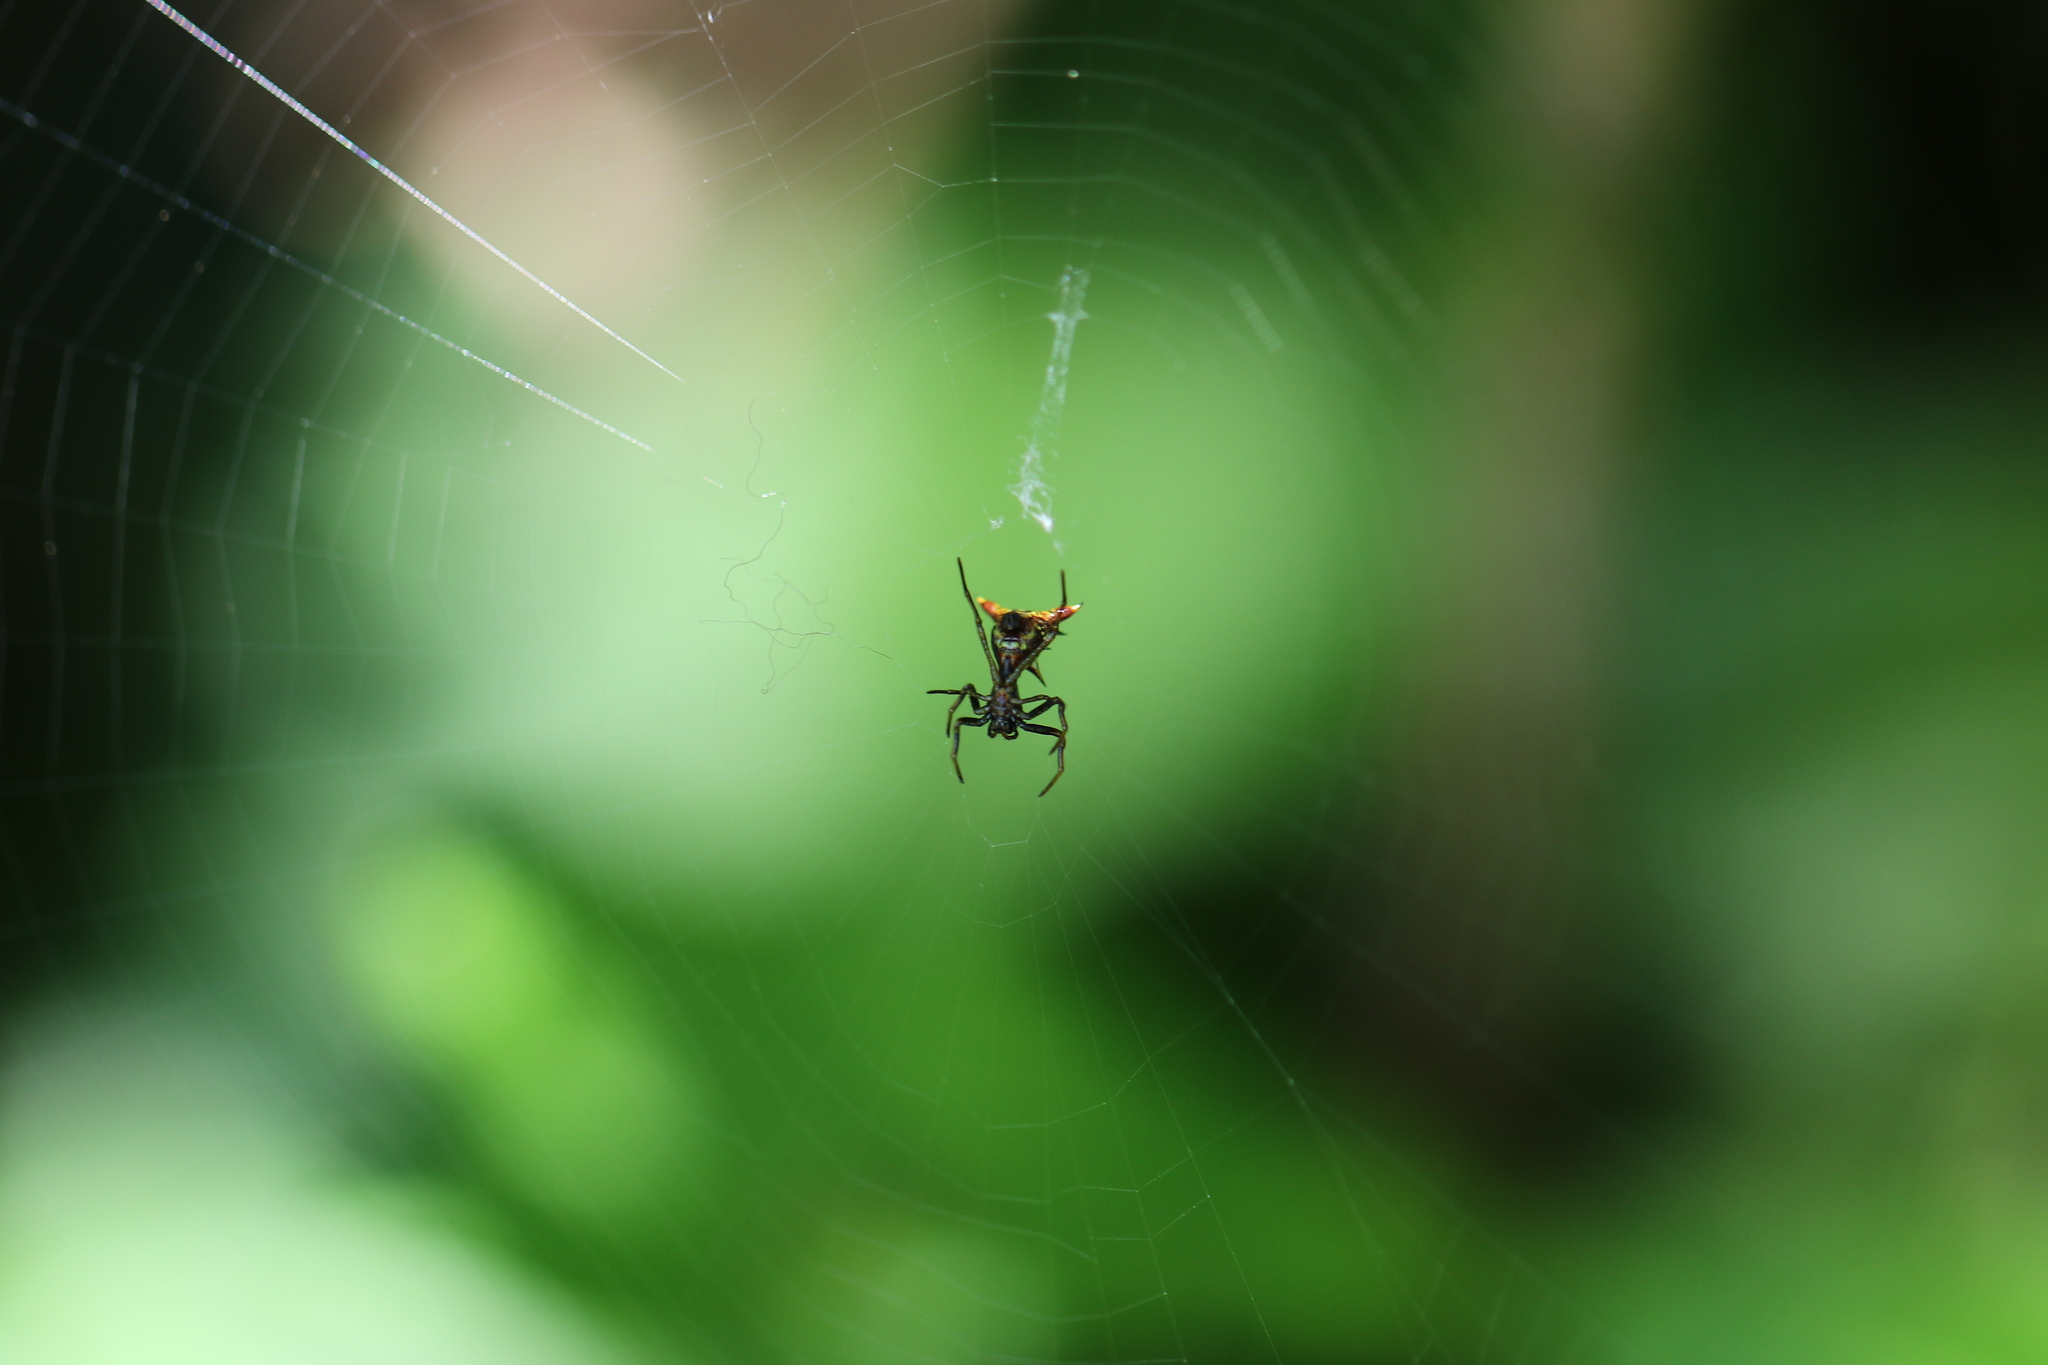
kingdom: Animalia
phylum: Arthropoda
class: Arachnida
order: Araneae
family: Araneidae
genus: Micrathena
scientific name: Micrathena sagittata
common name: Orb weavers
